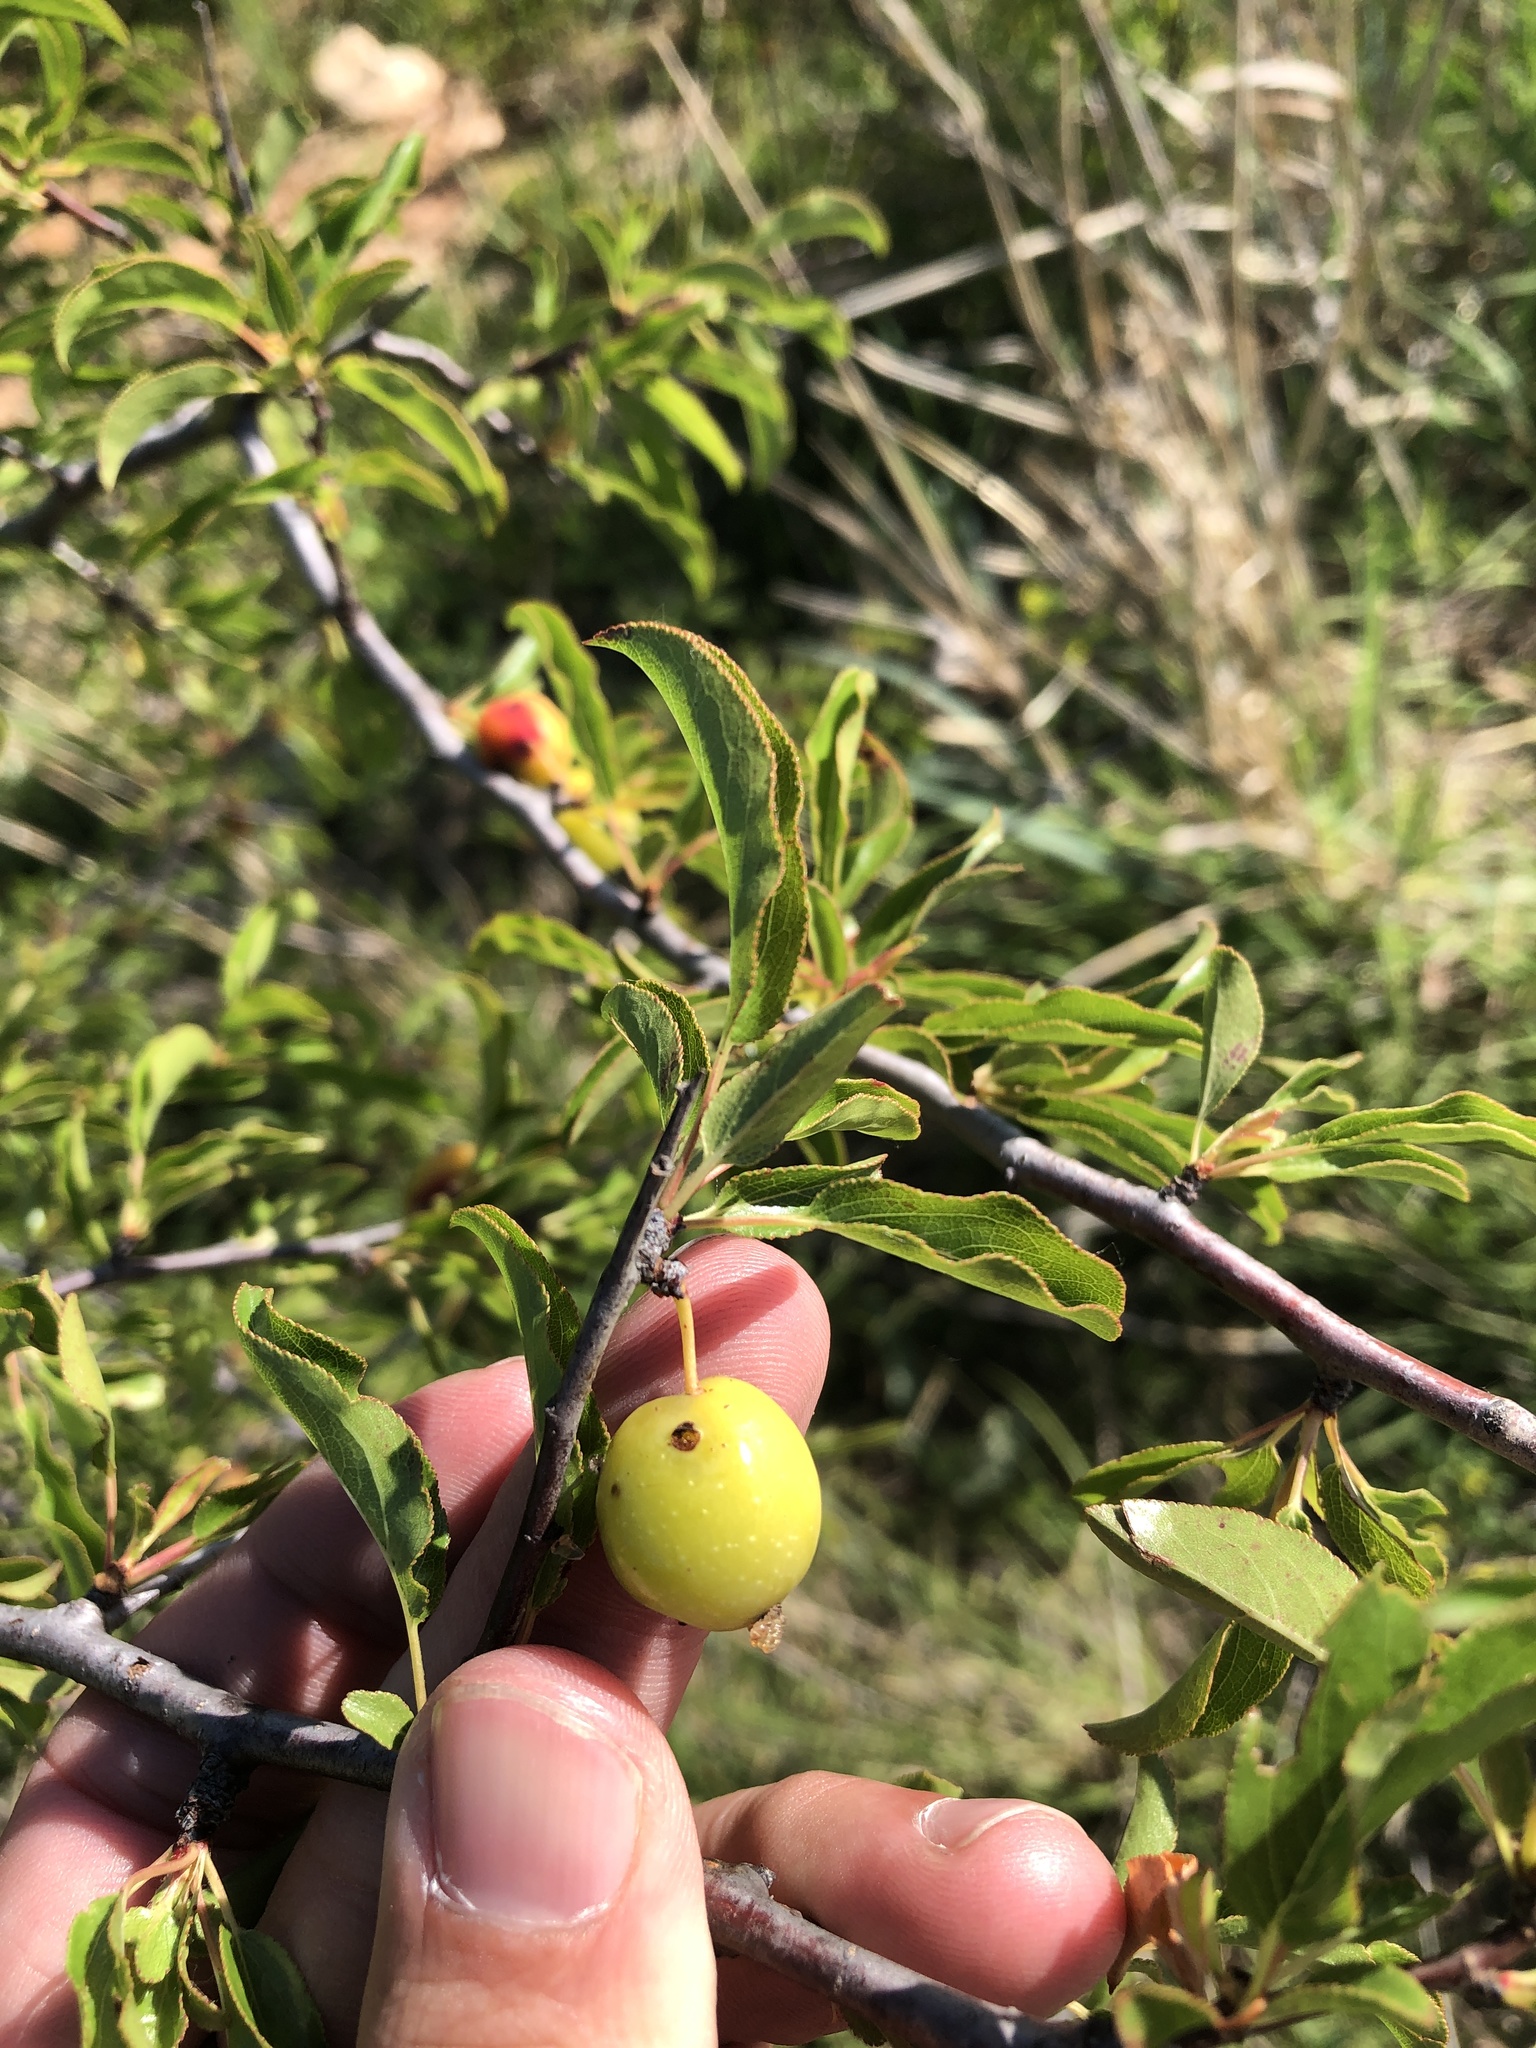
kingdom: Plantae
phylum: Tracheophyta
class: Magnoliopsida
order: Rosales
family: Rosaceae
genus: Prunus
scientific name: Prunus angustifolia
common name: Cherokee plum
